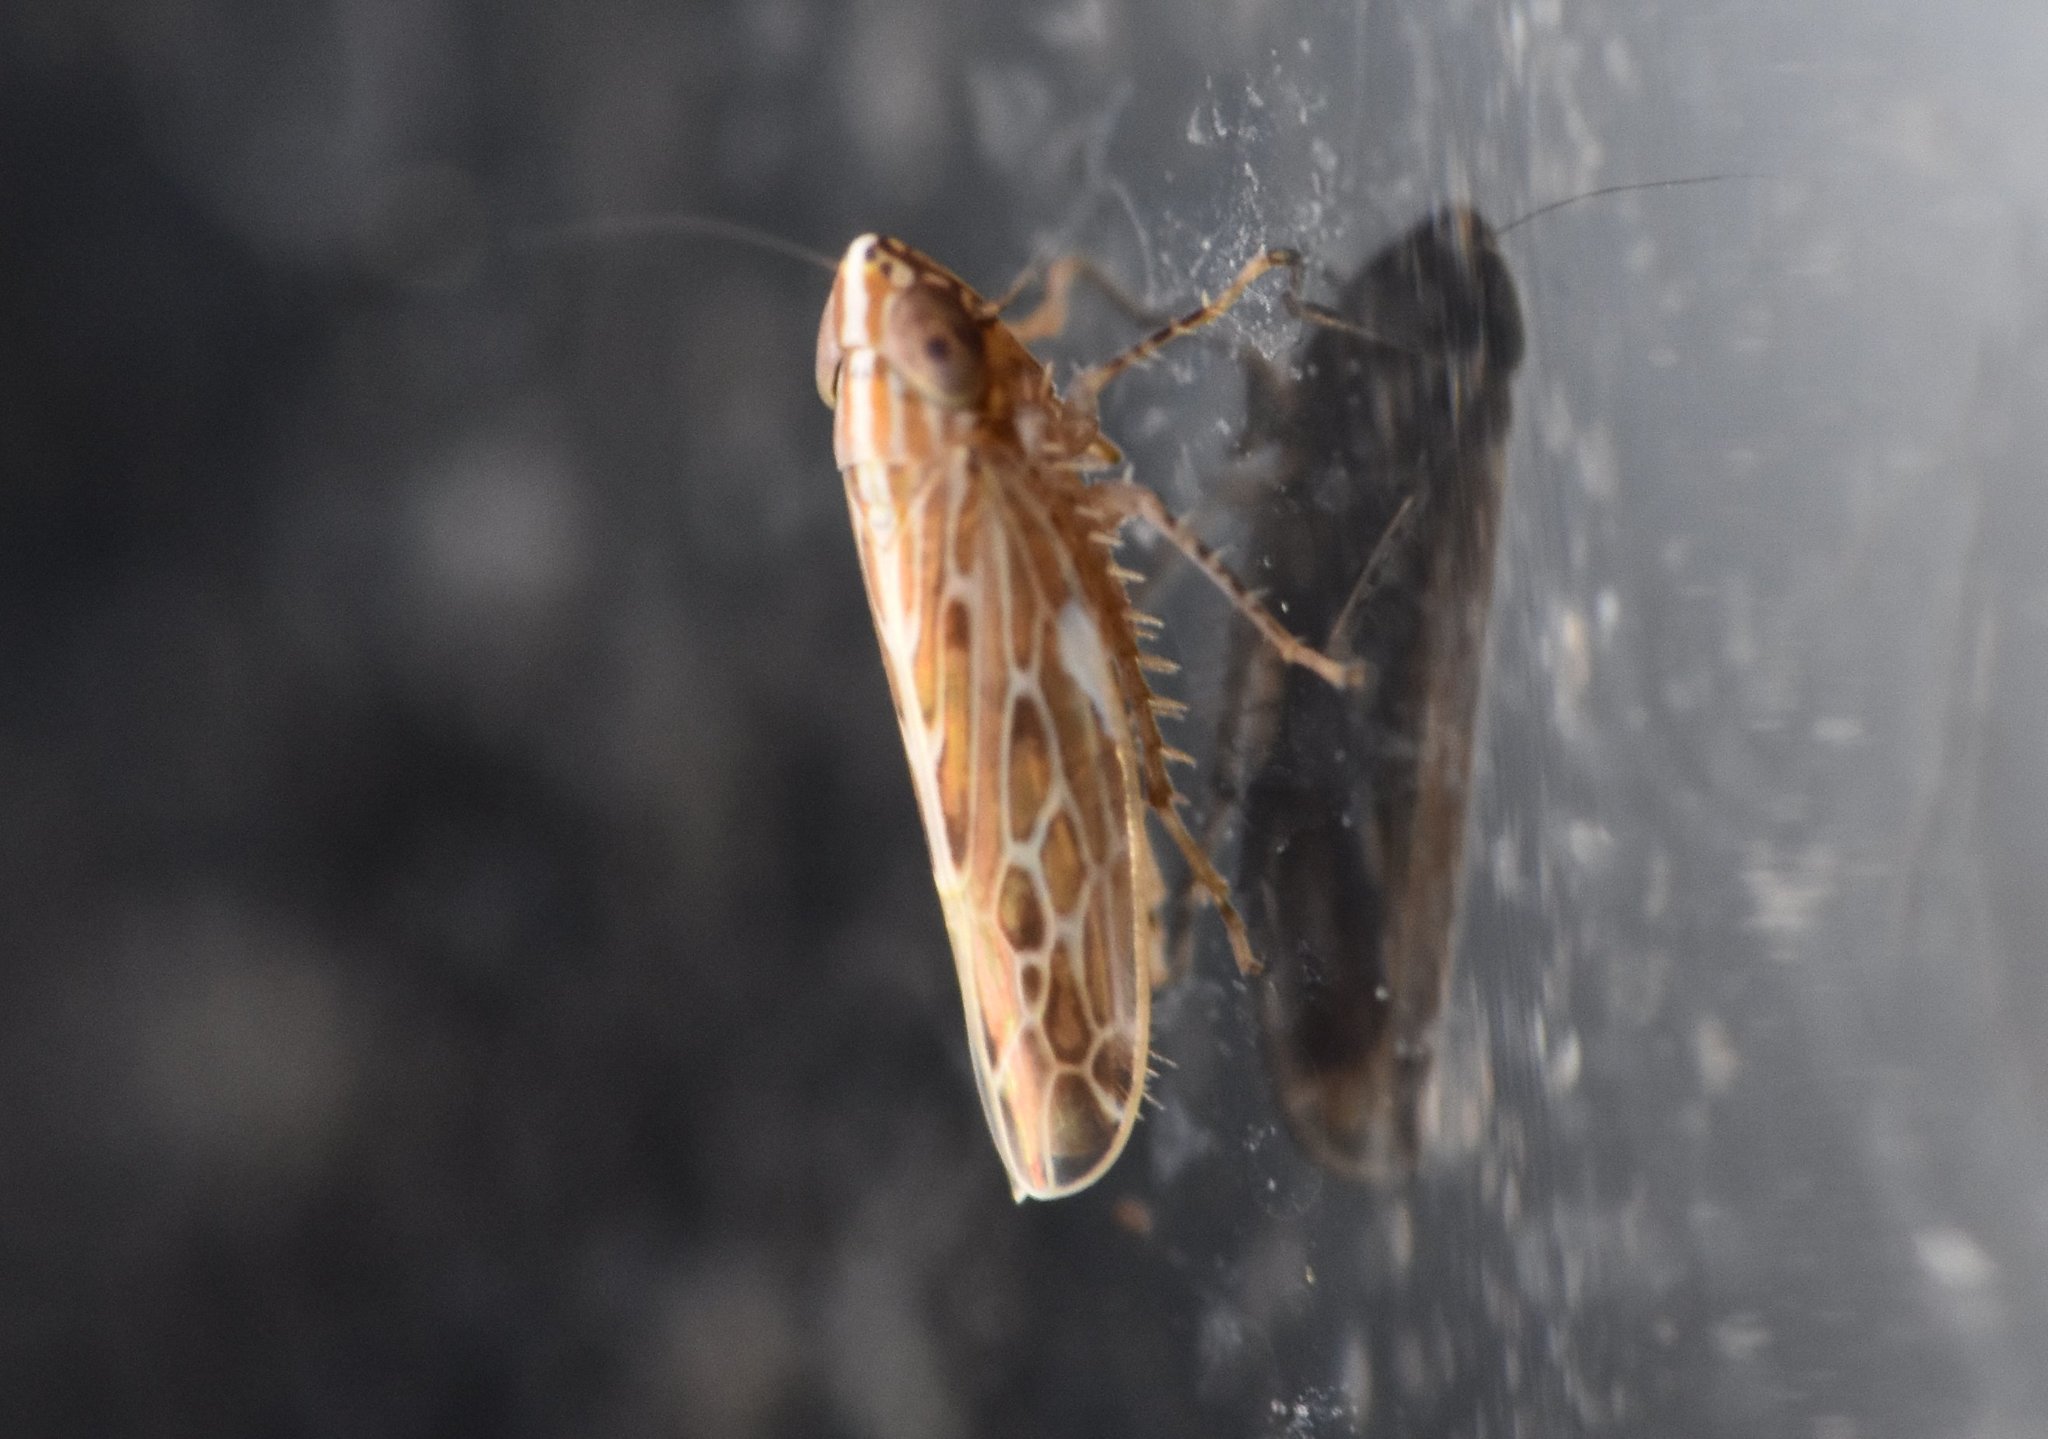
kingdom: Animalia
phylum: Arthropoda
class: Insecta
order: Hemiptera
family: Cicadellidae
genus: Cumora
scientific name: Cumora furcata
